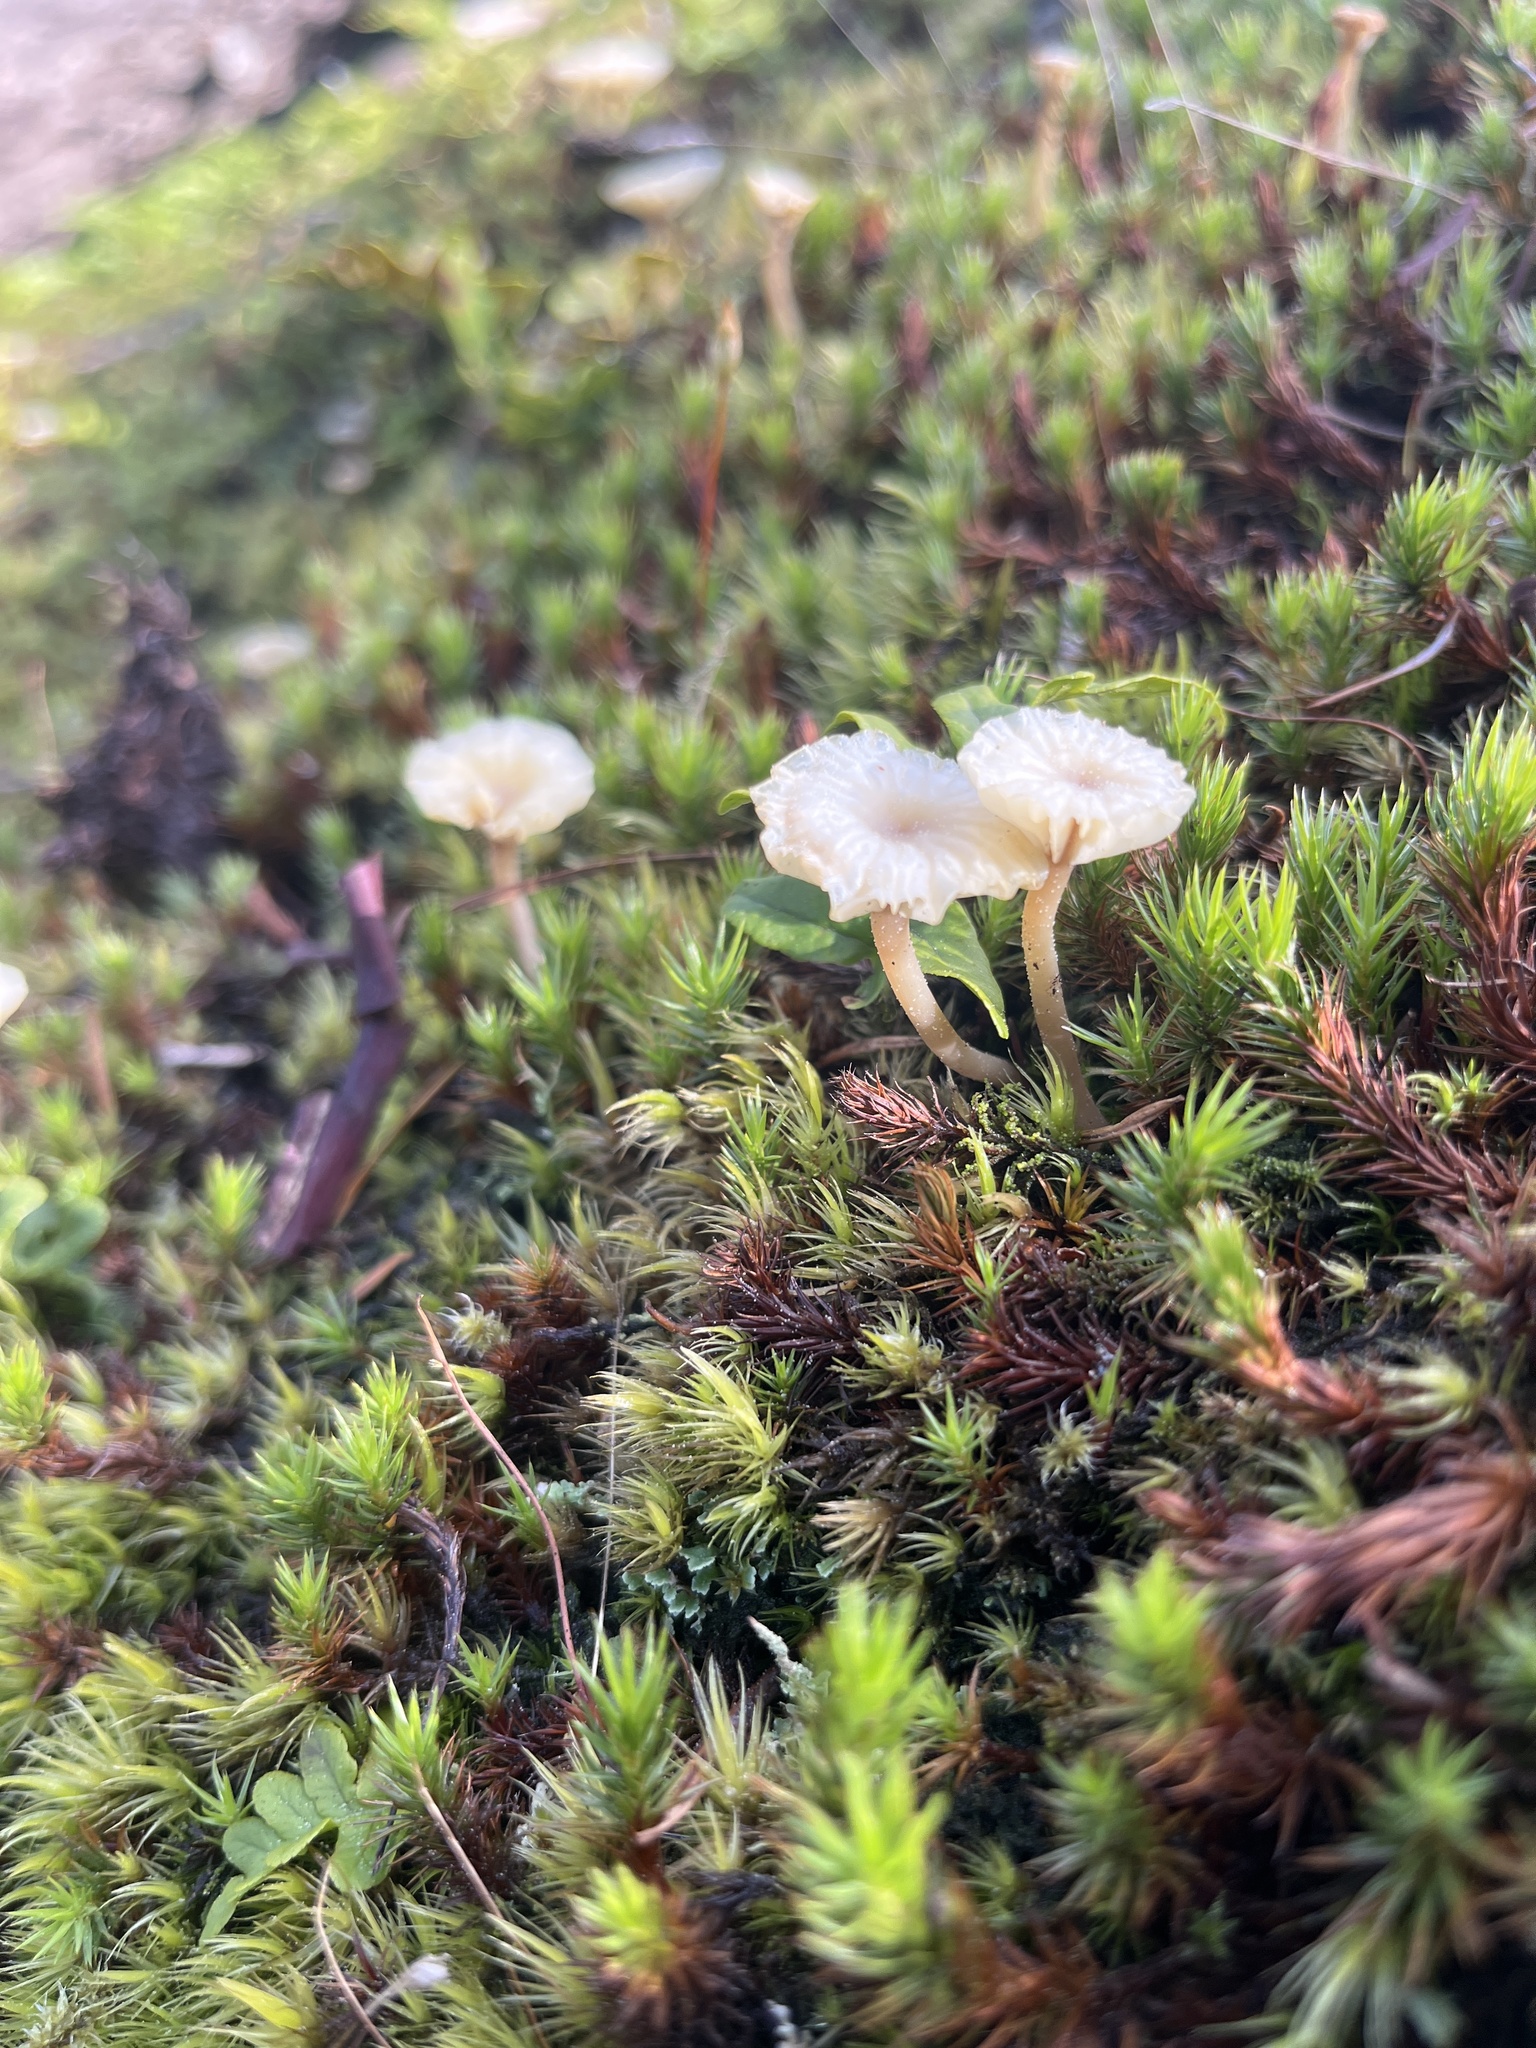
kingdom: Fungi
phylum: Basidiomycota
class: Agaricomycetes
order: Agaricales
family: Hygrophoraceae
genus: Lichenomphalia
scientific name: Lichenomphalia
